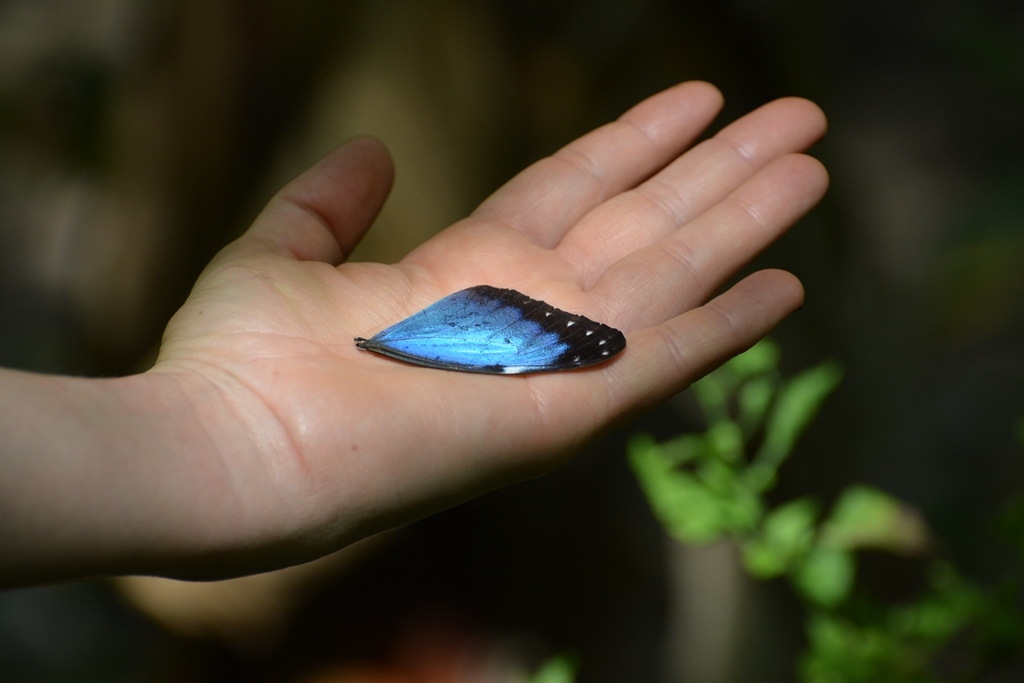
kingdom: Animalia
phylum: Arthropoda
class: Insecta
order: Lepidoptera
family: Nymphalidae
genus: Morpho
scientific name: Morpho helenor
